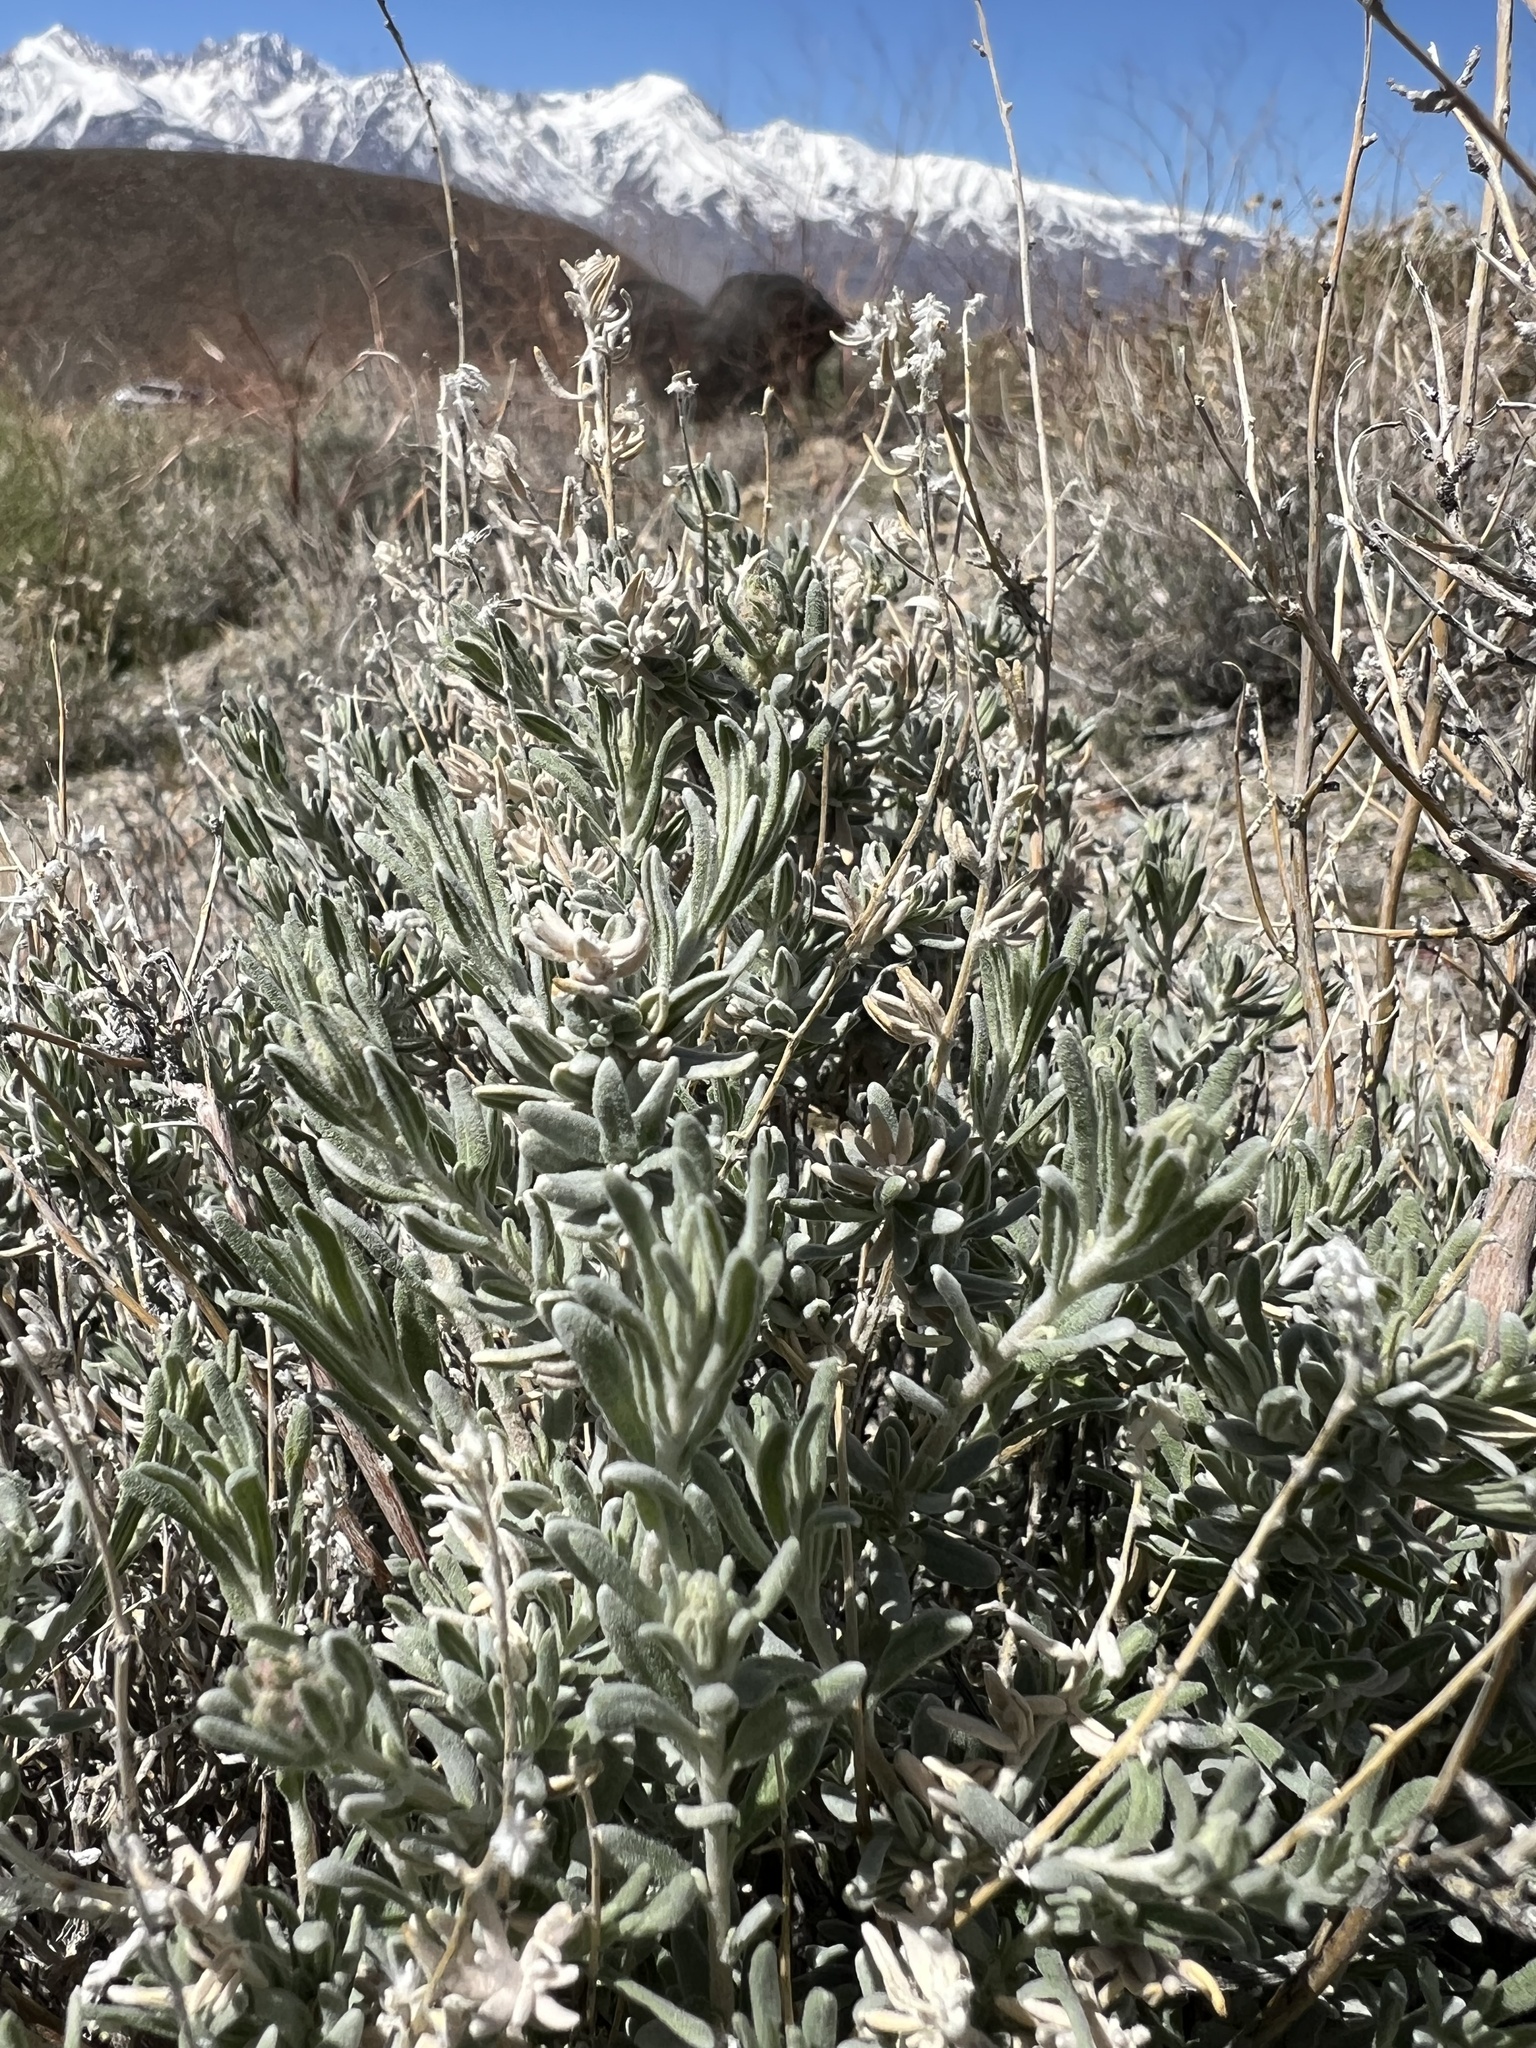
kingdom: Plantae
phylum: Tracheophyta
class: Magnoliopsida
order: Caryophyllales
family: Amaranthaceae
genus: Krascheninnikovia
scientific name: Krascheninnikovia lanata
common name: Winterfat
